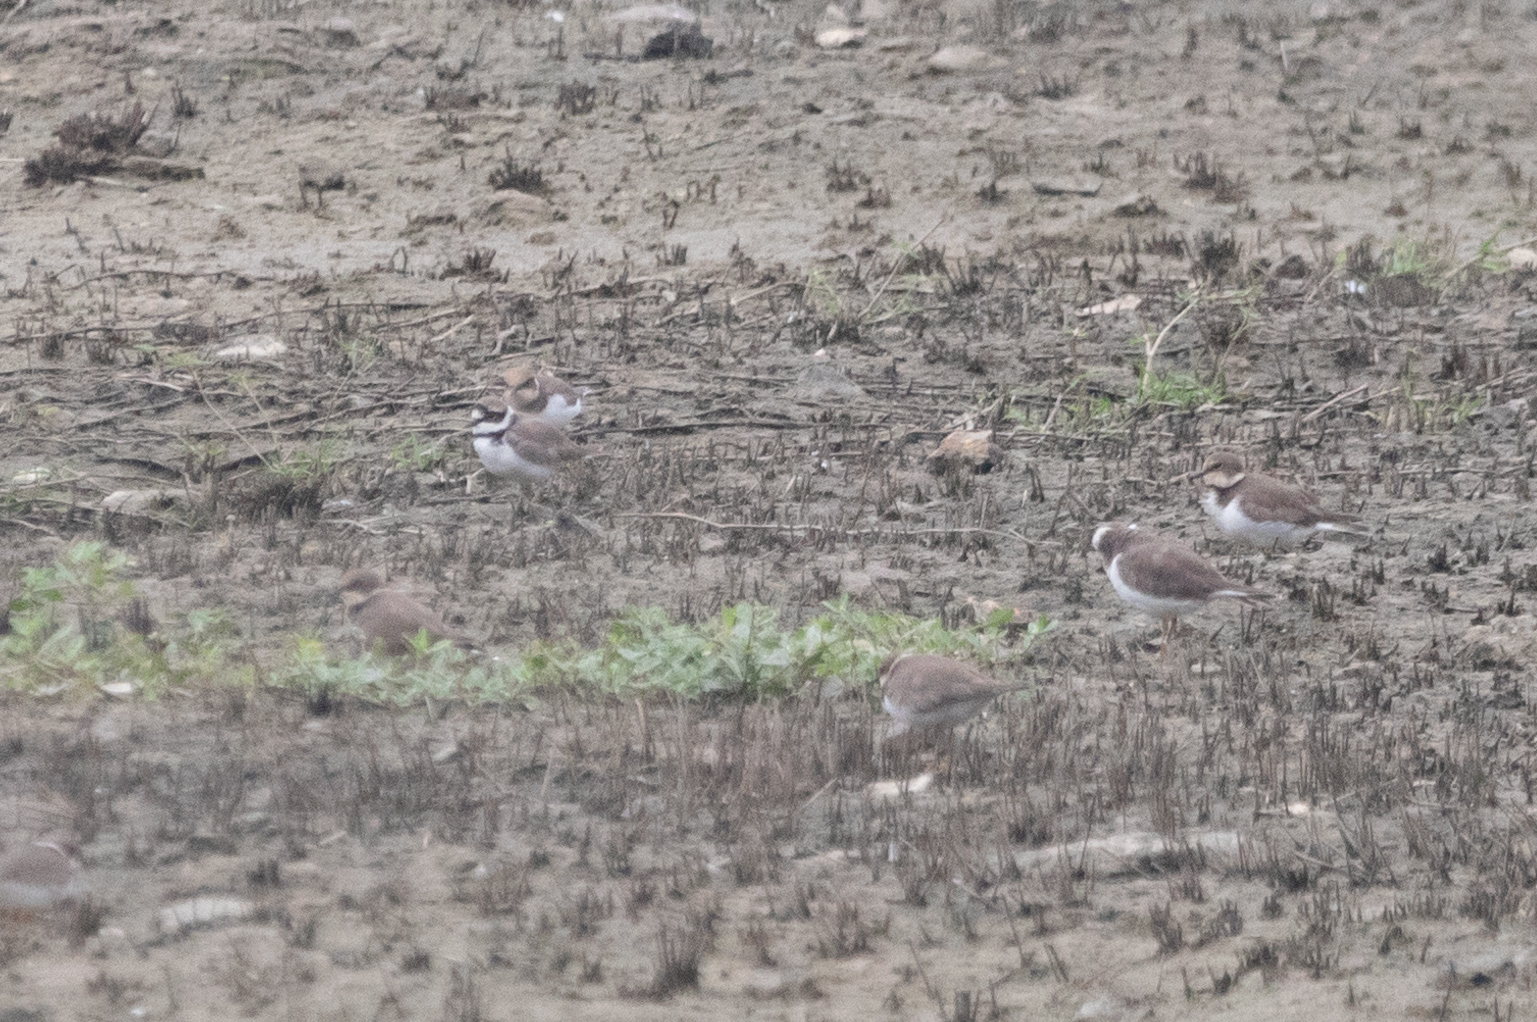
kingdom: Animalia
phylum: Chordata
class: Aves
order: Charadriiformes
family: Charadriidae
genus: Charadrius
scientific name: Charadrius dubius
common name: Little ringed plover
